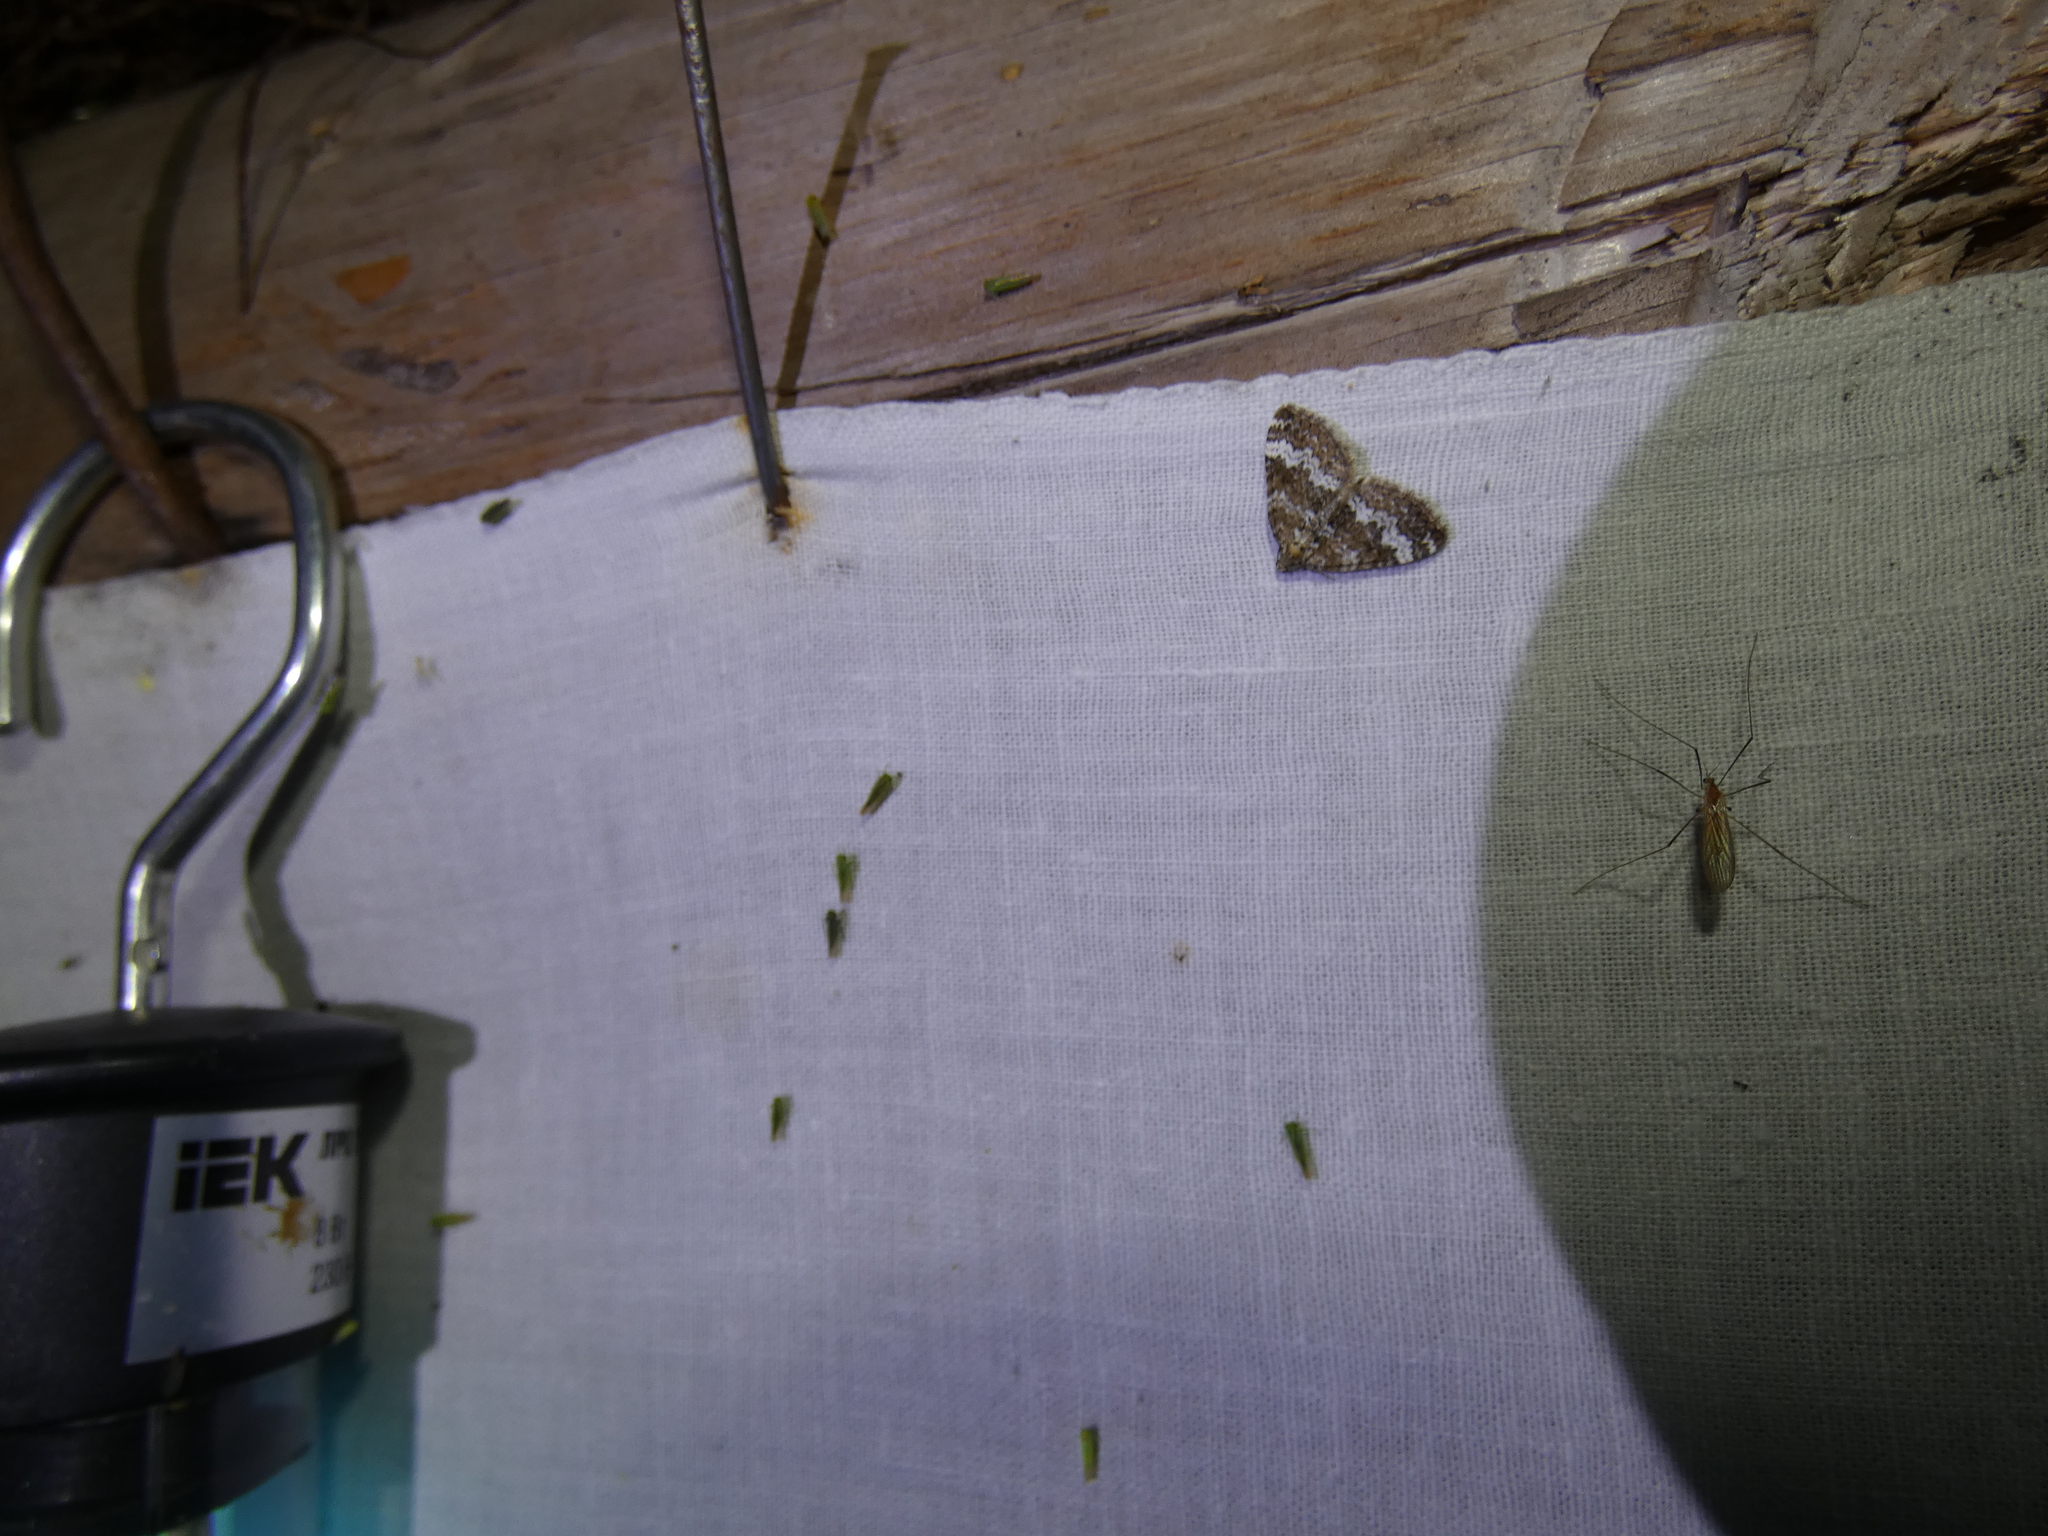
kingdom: Animalia
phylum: Arthropoda
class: Insecta
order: Lepidoptera
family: Geometridae
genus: Perizoma
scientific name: Perizoma alchemillata
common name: Small rivulet
